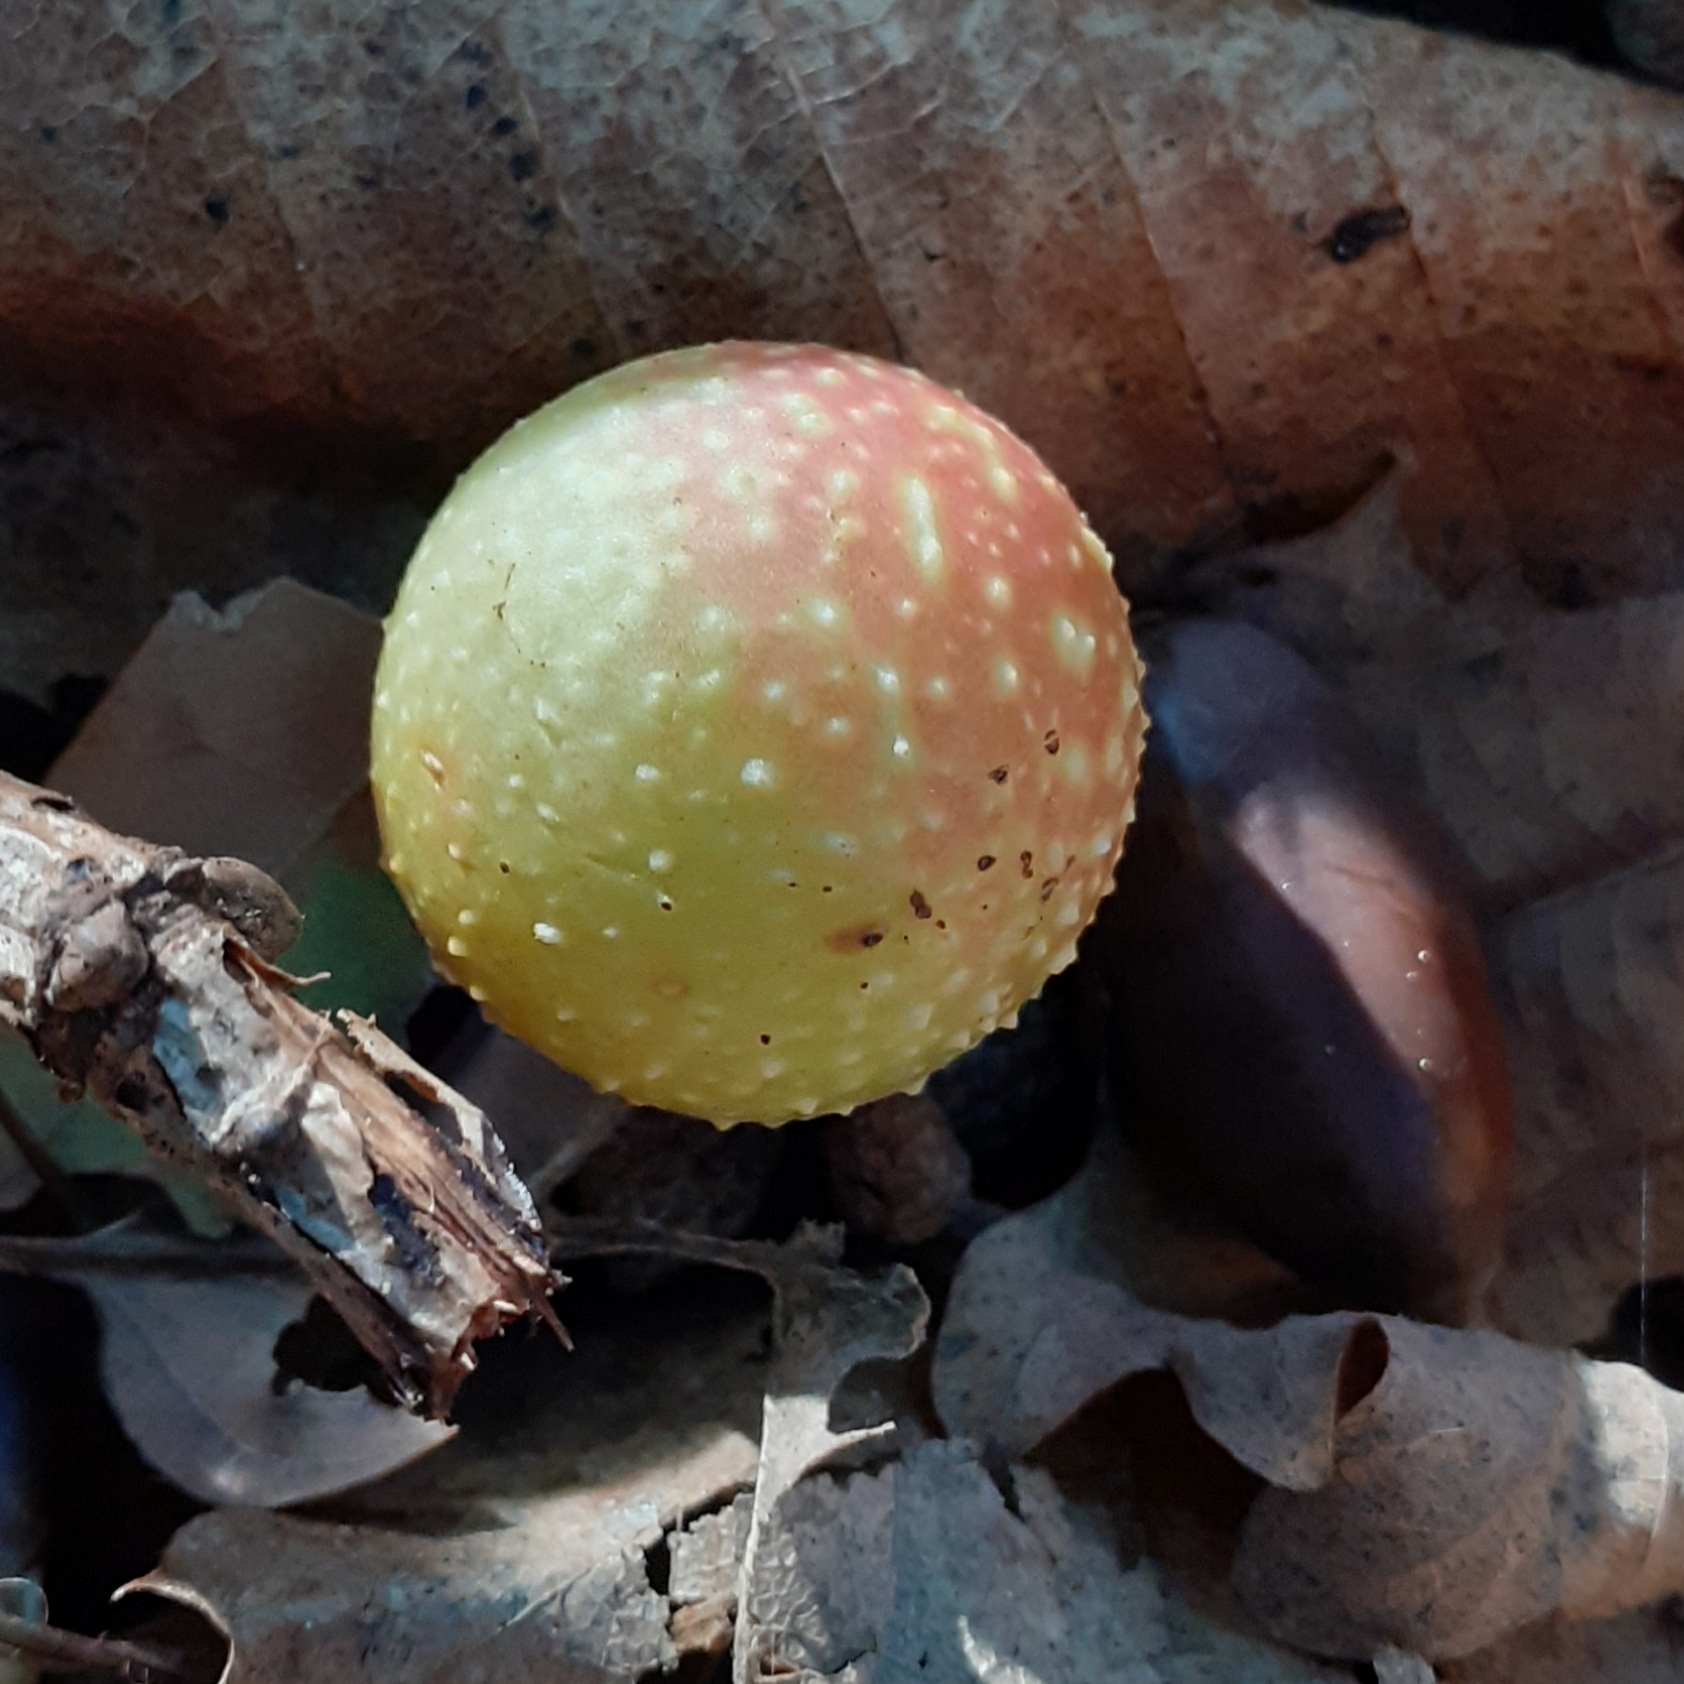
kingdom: Animalia
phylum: Arthropoda
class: Insecta
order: Hymenoptera
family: Cynipidae
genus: Cynips
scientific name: Cynips quercusfolii
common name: Cherry gall
